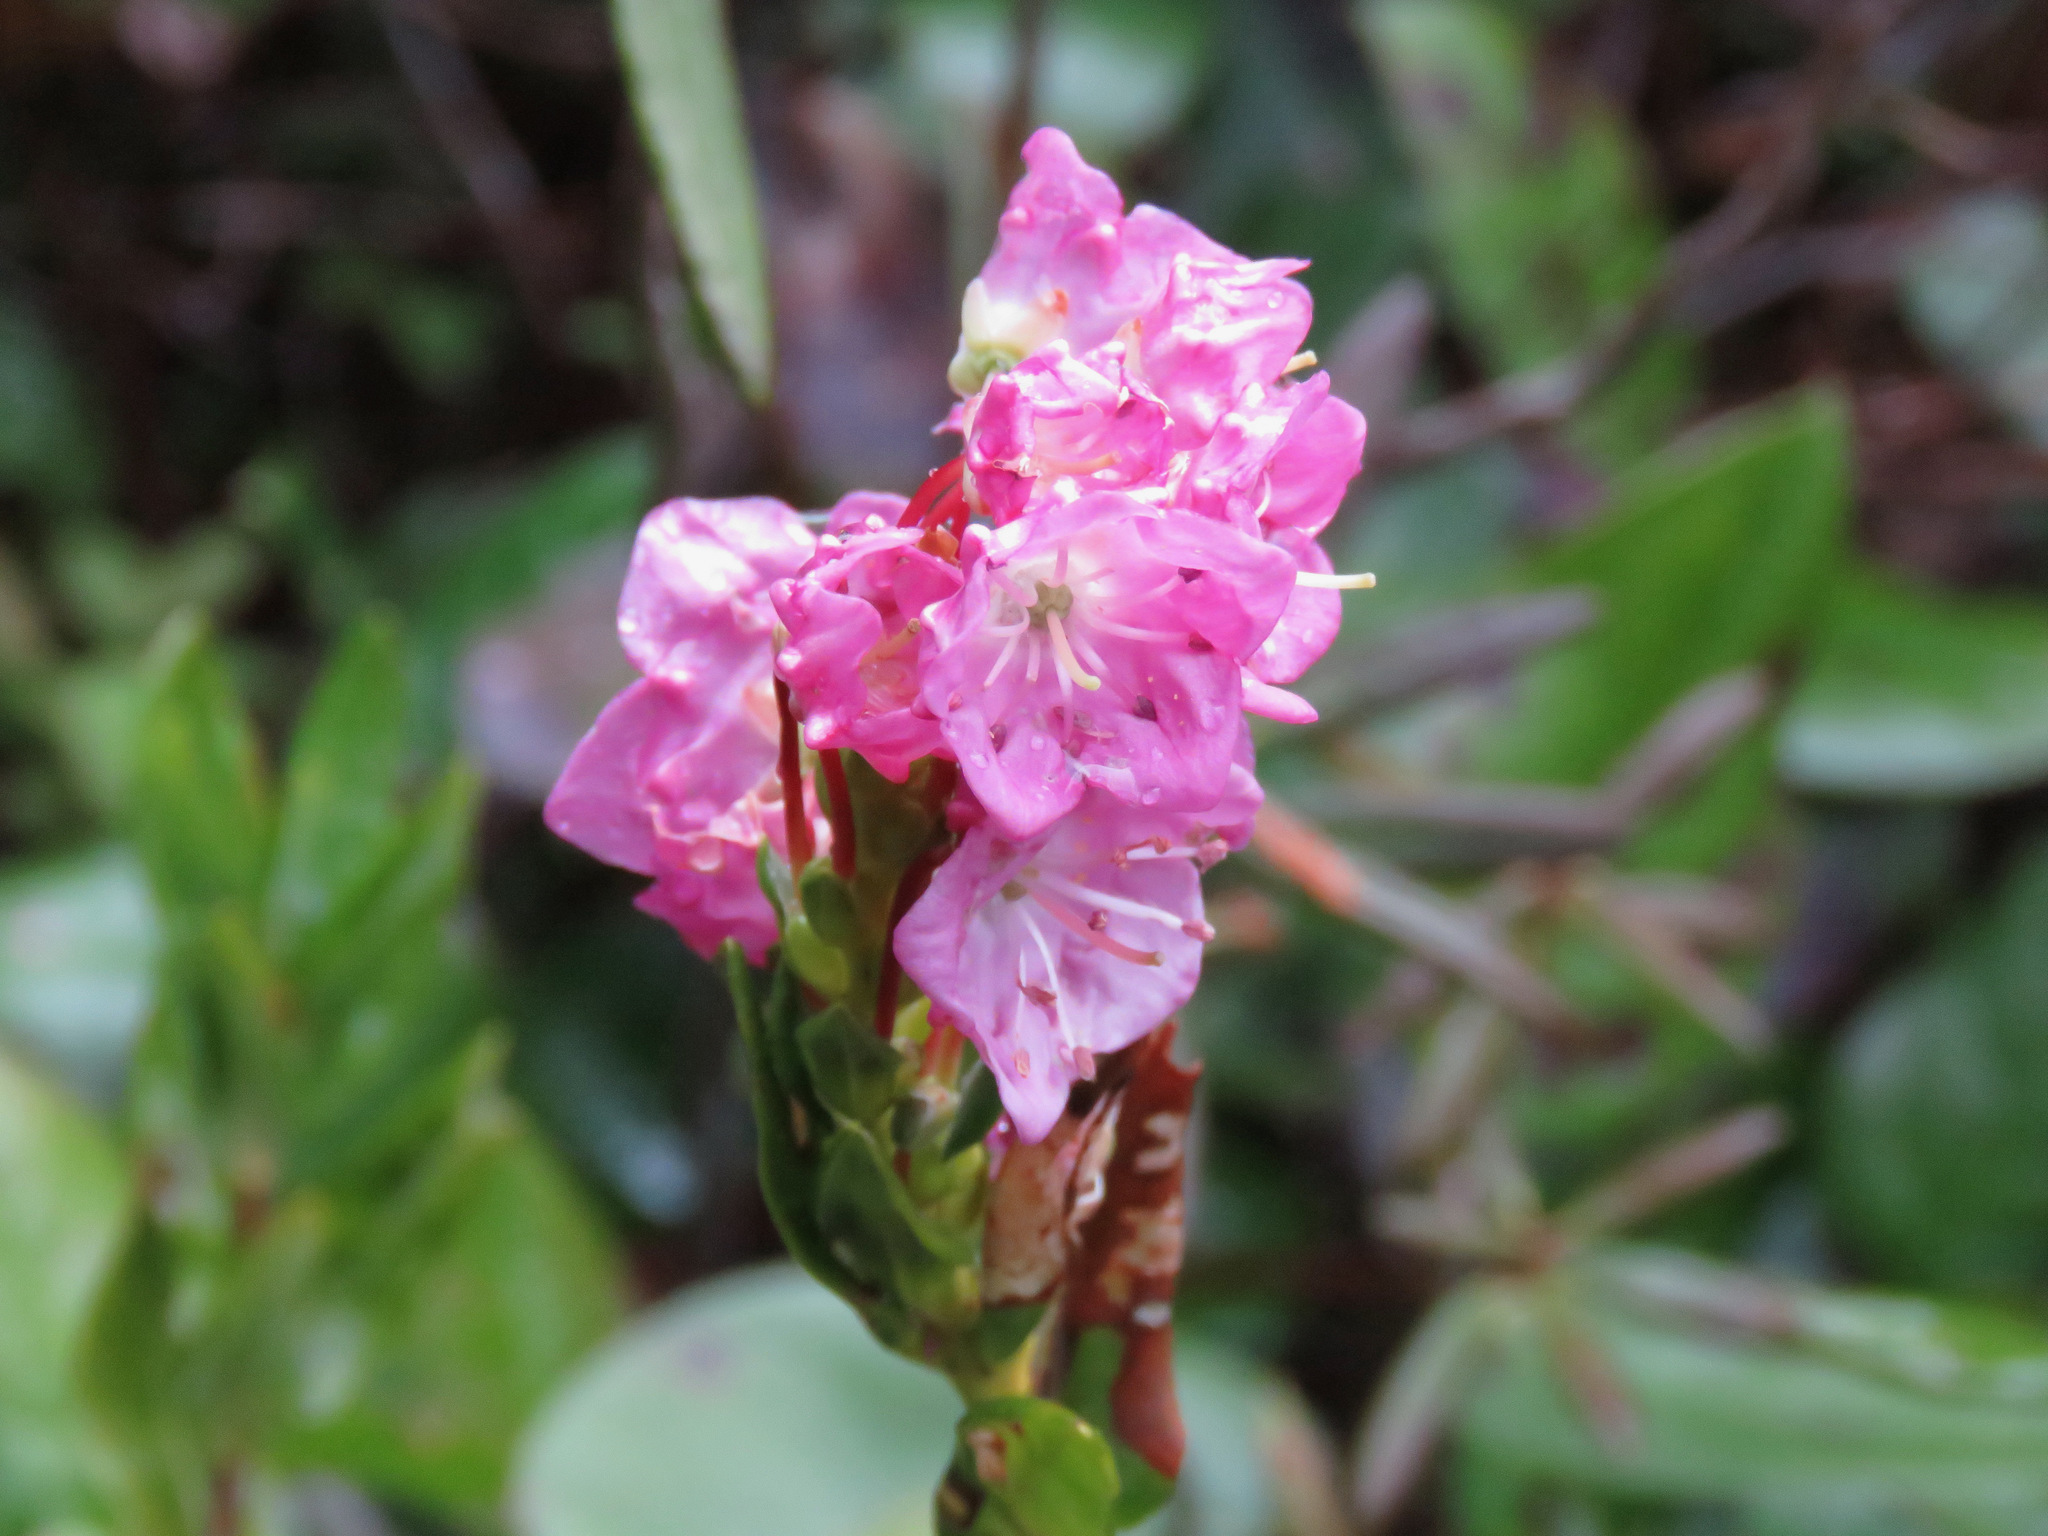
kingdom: Plantae
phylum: Tracheophyta
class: Magnoliopsida
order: Ericales
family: Ericaceae
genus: Kalmia
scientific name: Kalmia microphylla
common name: Alpine bog laurel
